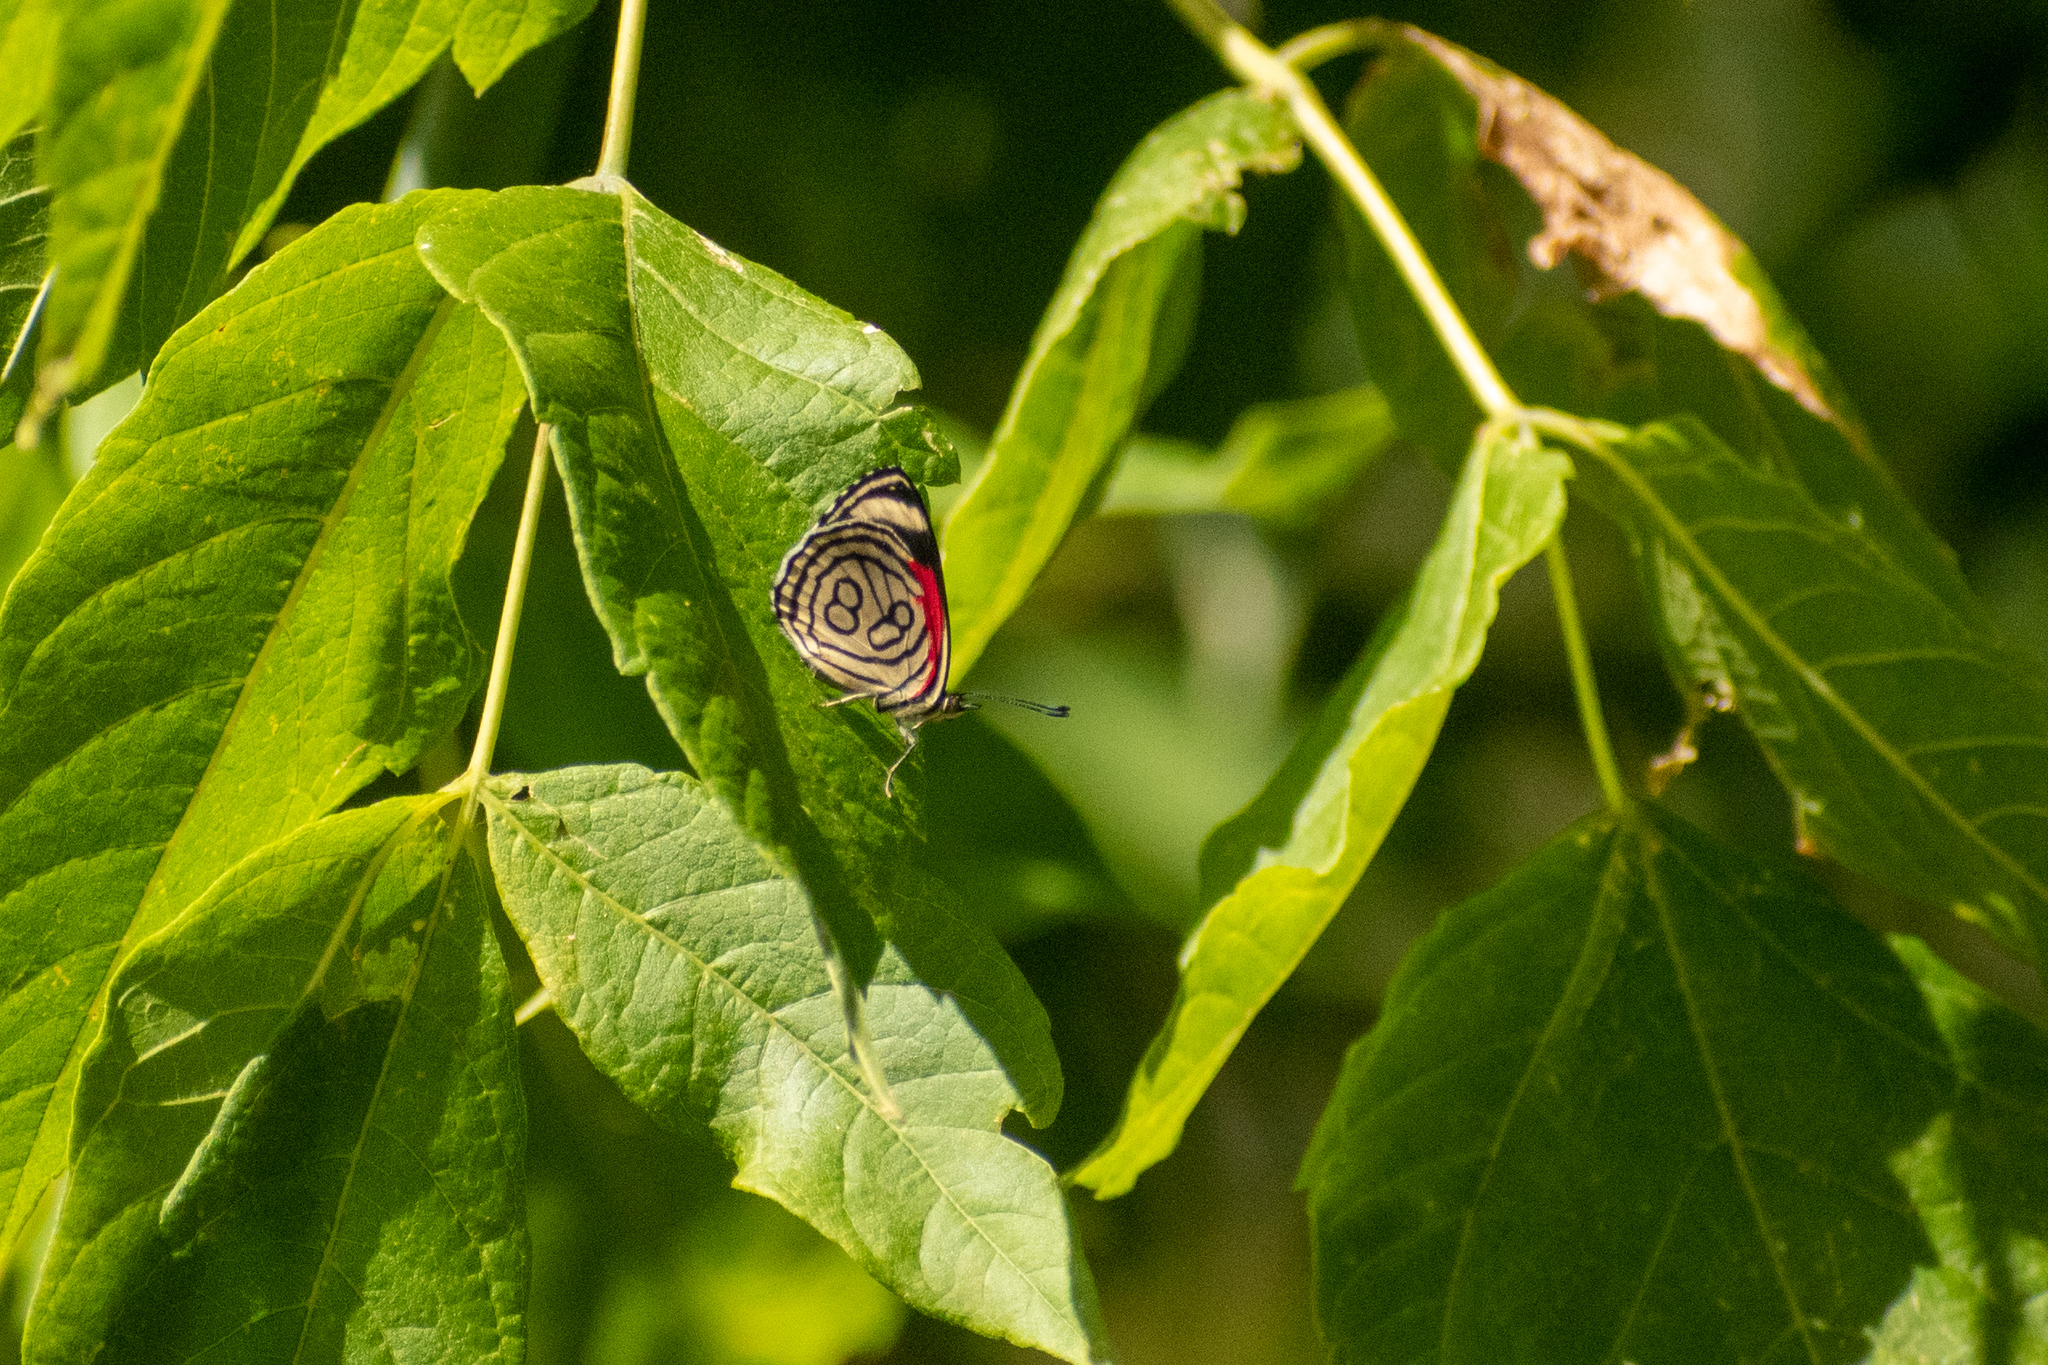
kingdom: Animalia
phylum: Arthropoda
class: Insecta
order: Lepidoptera
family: Nymphalidae
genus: Diaethria
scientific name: Diaethria candrena
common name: Number eighty
